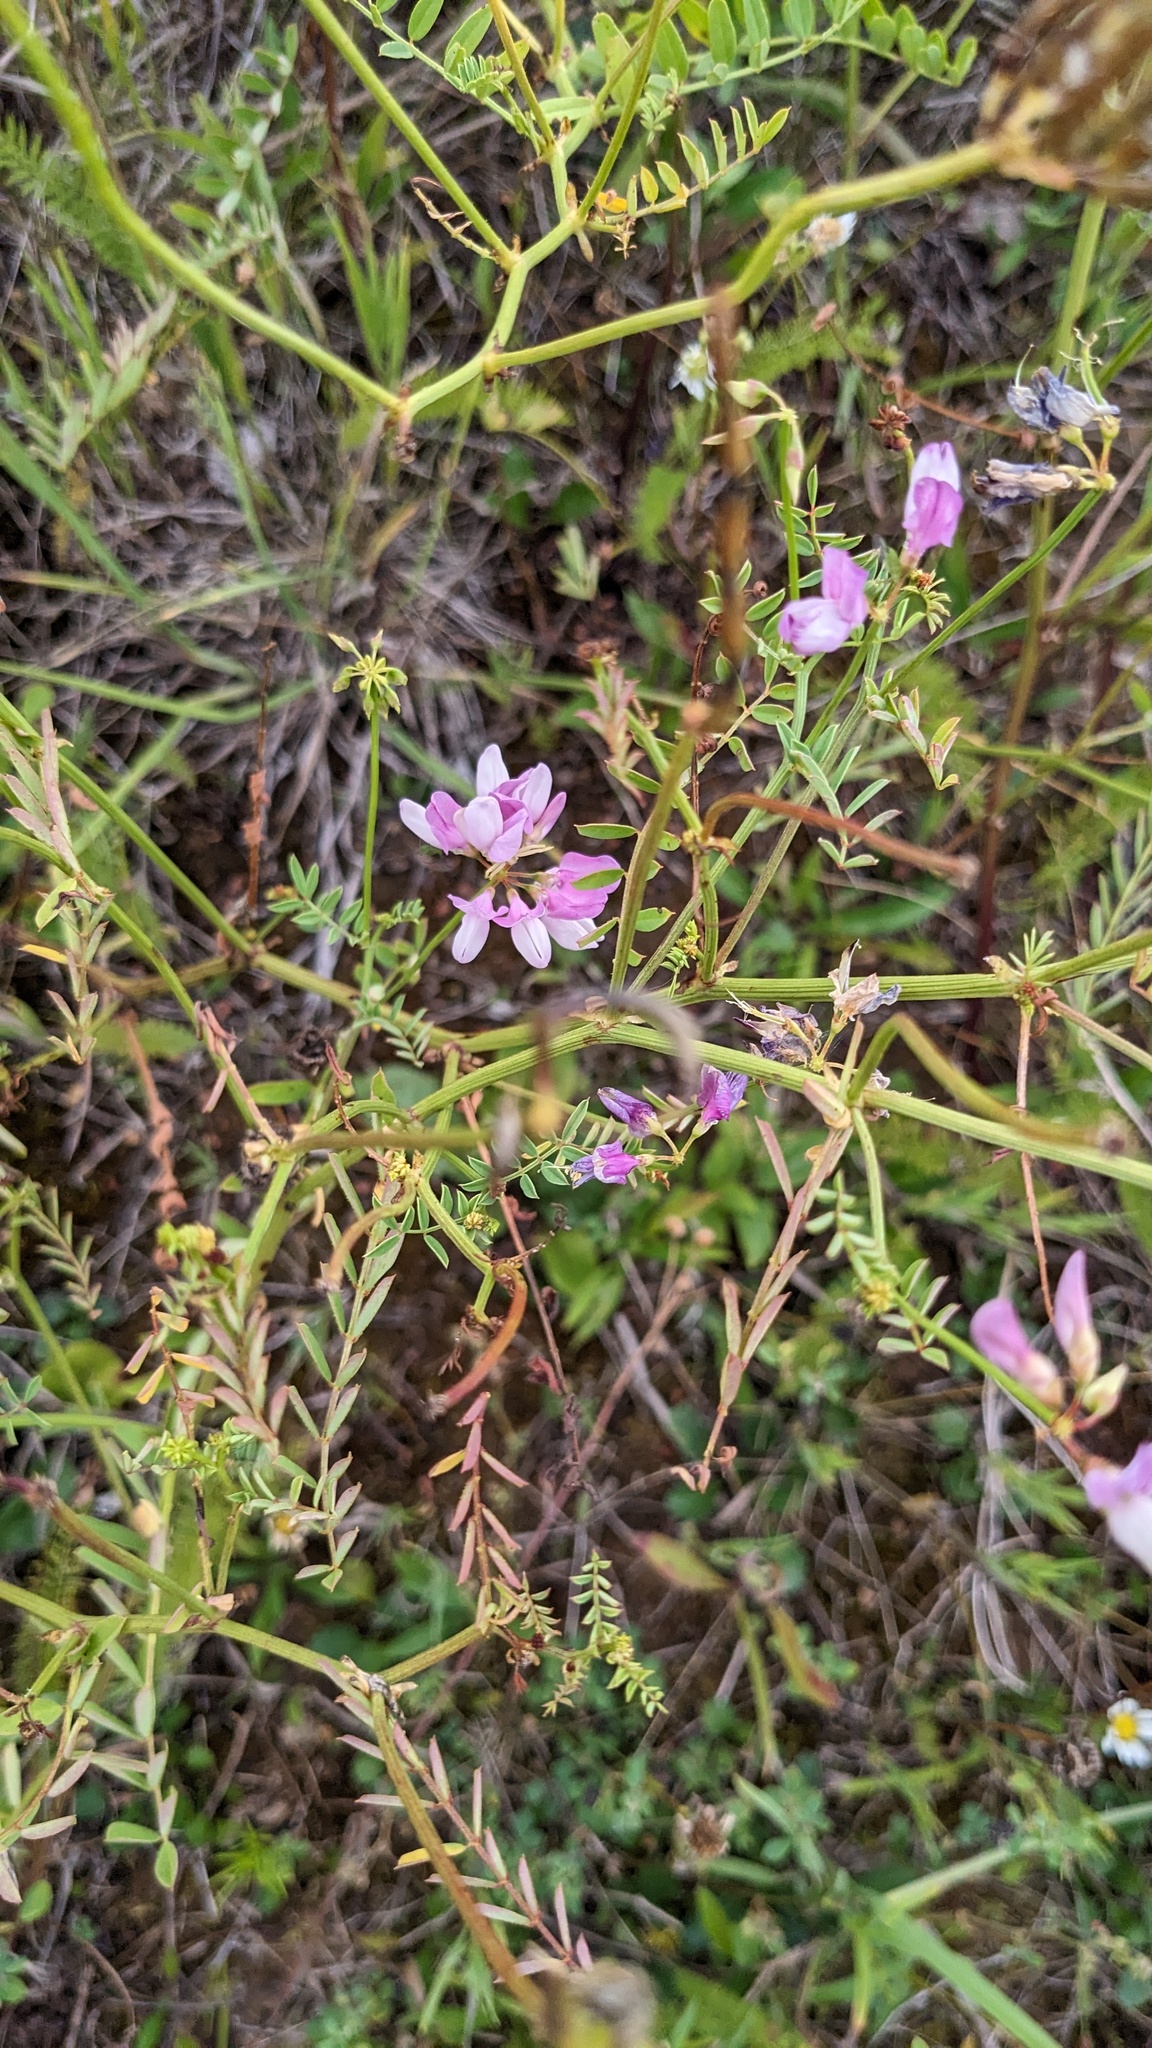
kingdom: Plantae
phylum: Tracheophyta
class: Magnoliopsida
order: Fabales
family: Fabaceae
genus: Coronilla
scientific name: Coronilla varia
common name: Crownvetch
